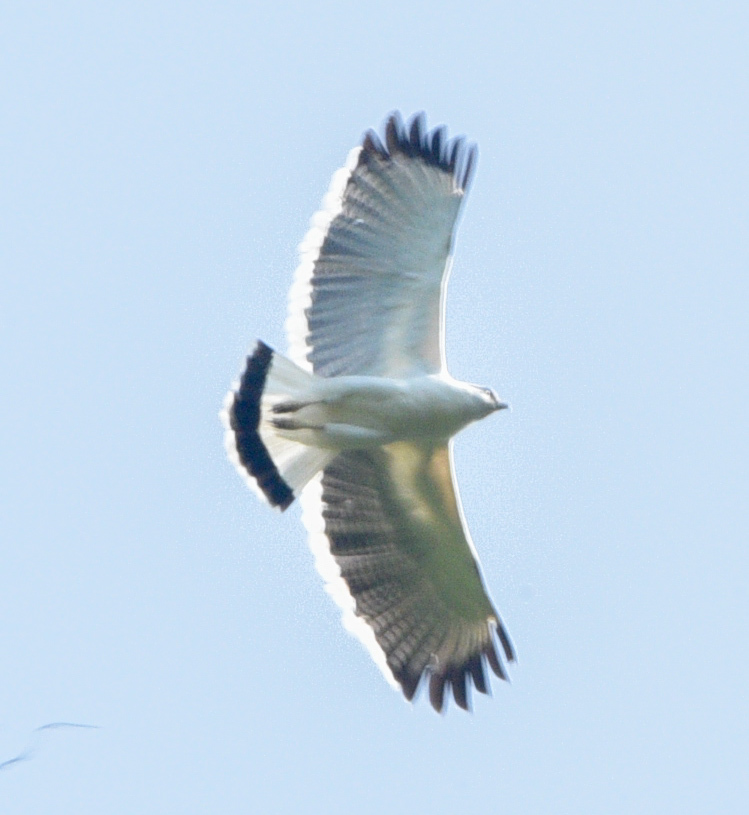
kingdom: Animalia
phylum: Chordata
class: Aves
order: Accipitriformes
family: Accipitridae
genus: Leucopternis
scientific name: Leucopternis albicollis
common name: White hawk
